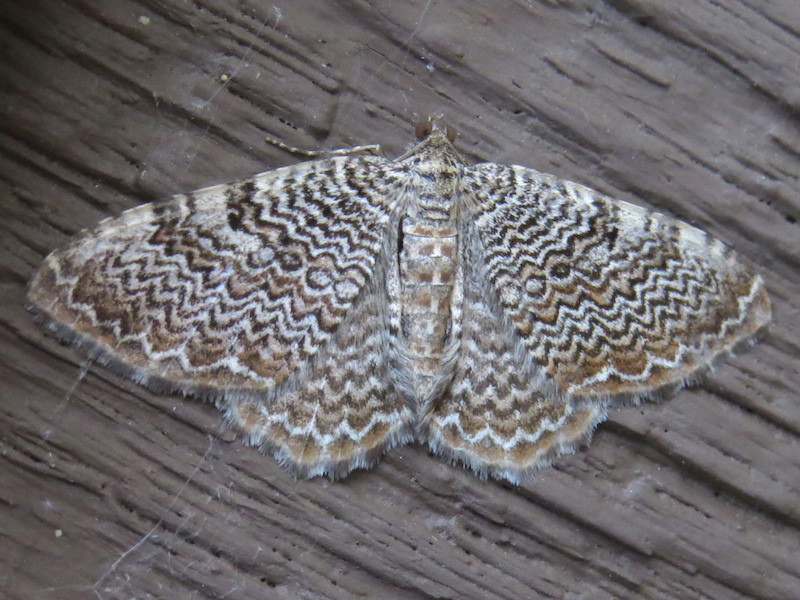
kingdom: Animalia
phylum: Arthropoda
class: Insecta
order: Lepidoptera
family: Geometridae
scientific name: Geometridae
